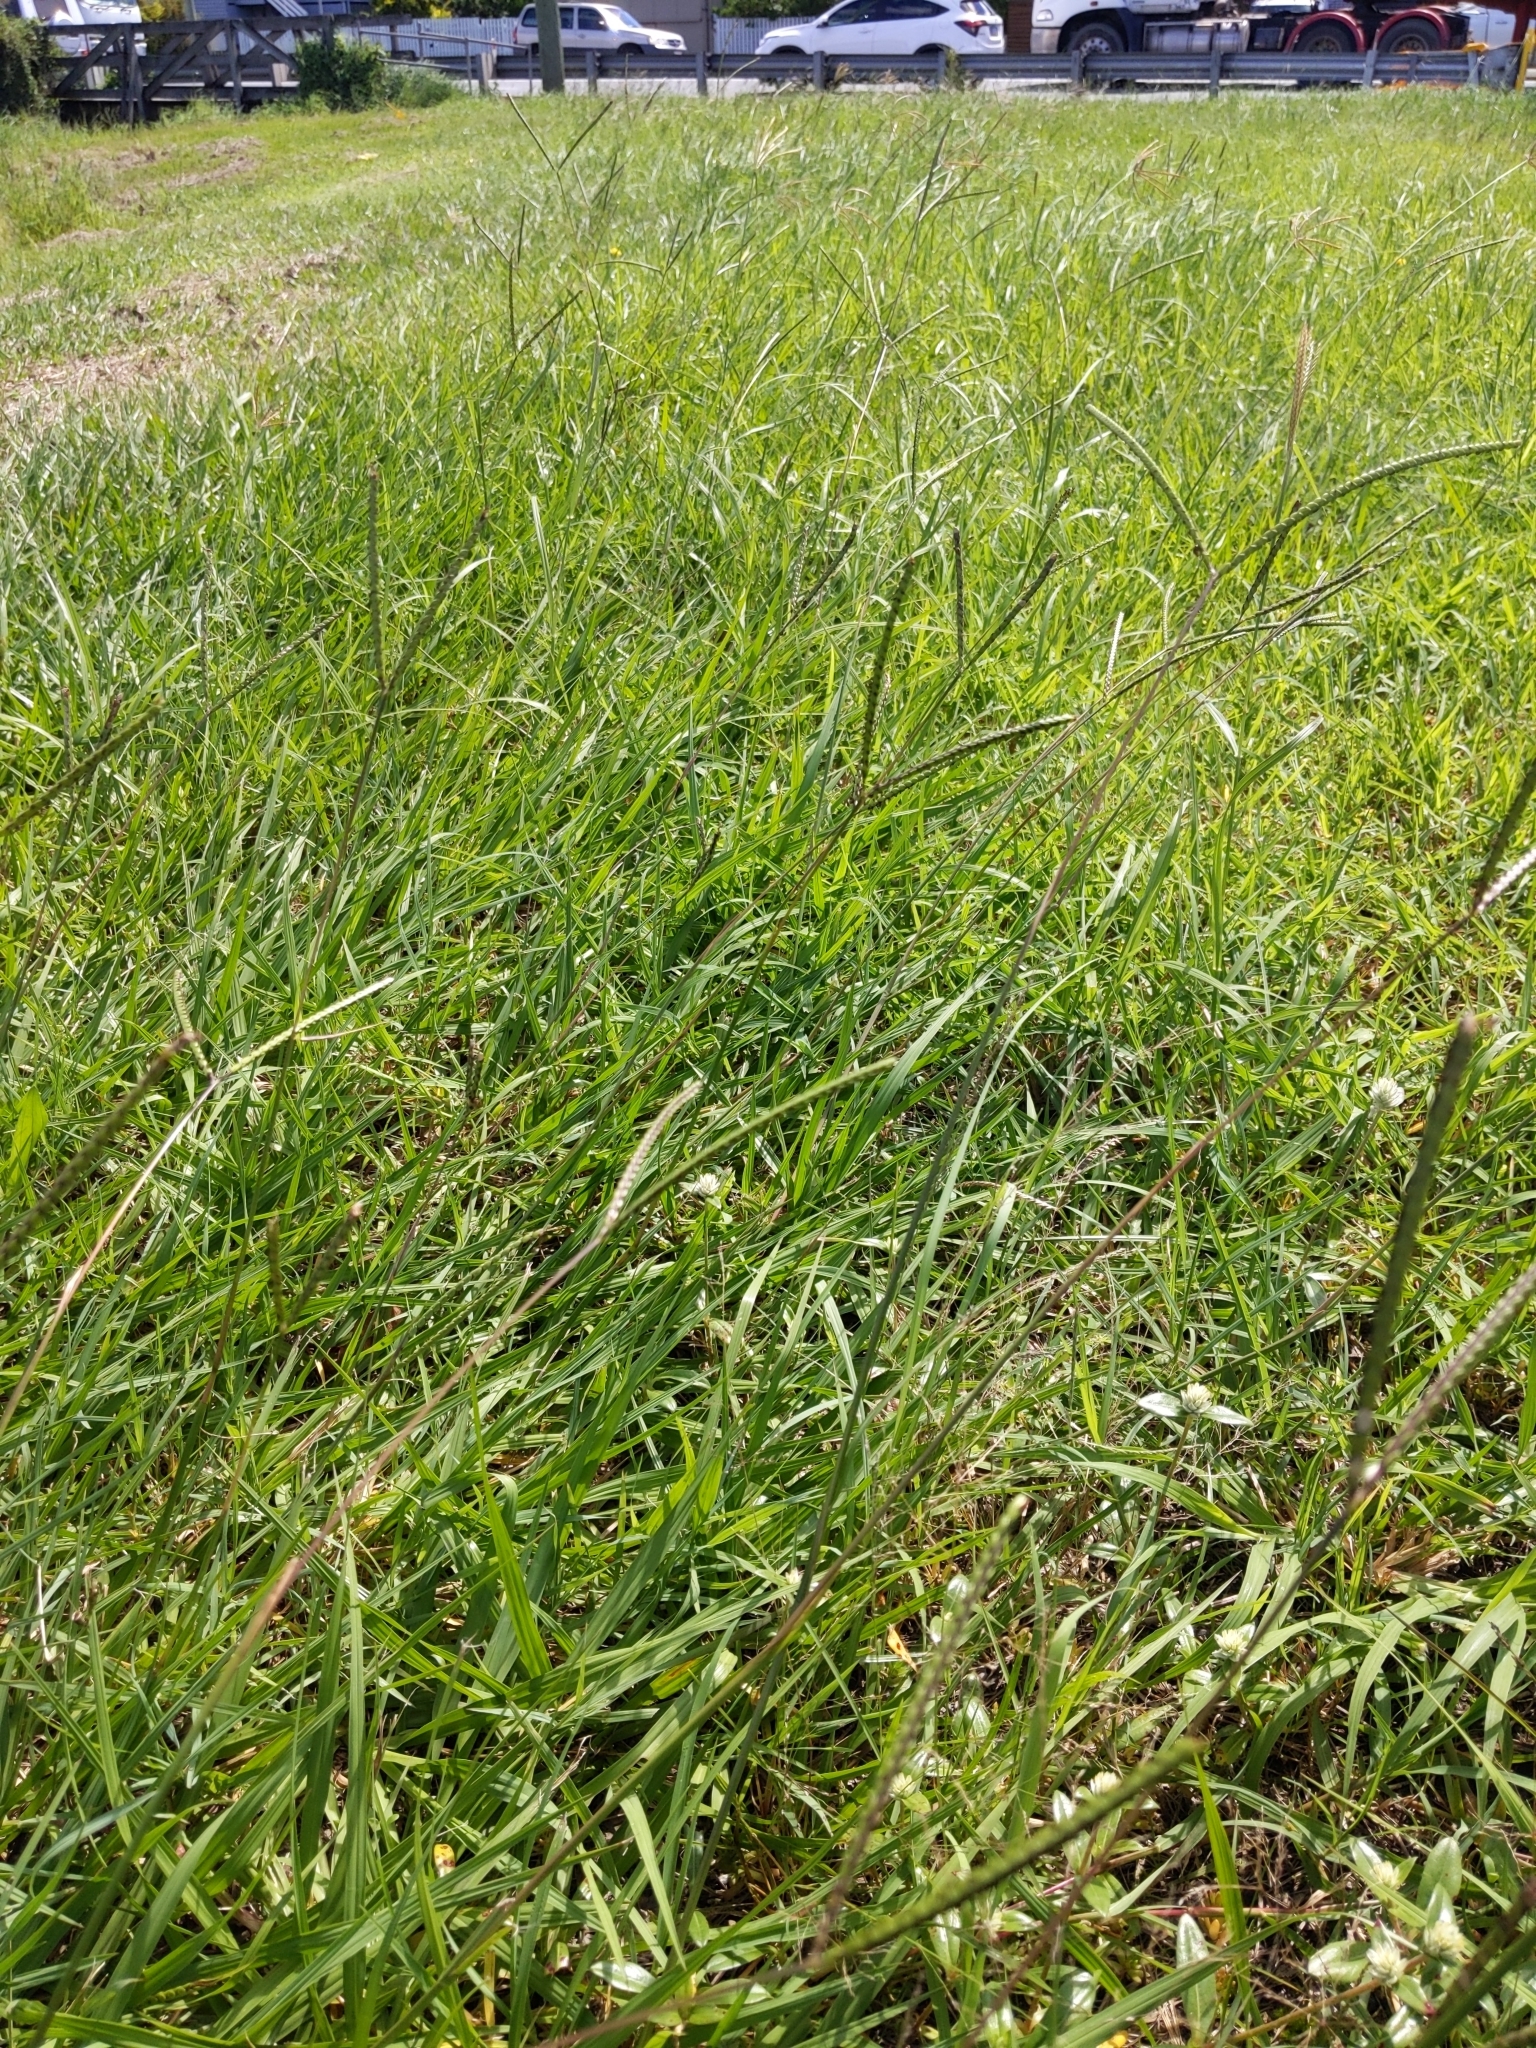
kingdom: Plantae
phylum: Tracheophyta
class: Liliopsida
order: Poales
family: Poaceae
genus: Paspalum
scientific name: Paspalum notatum
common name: Bahiagrass
